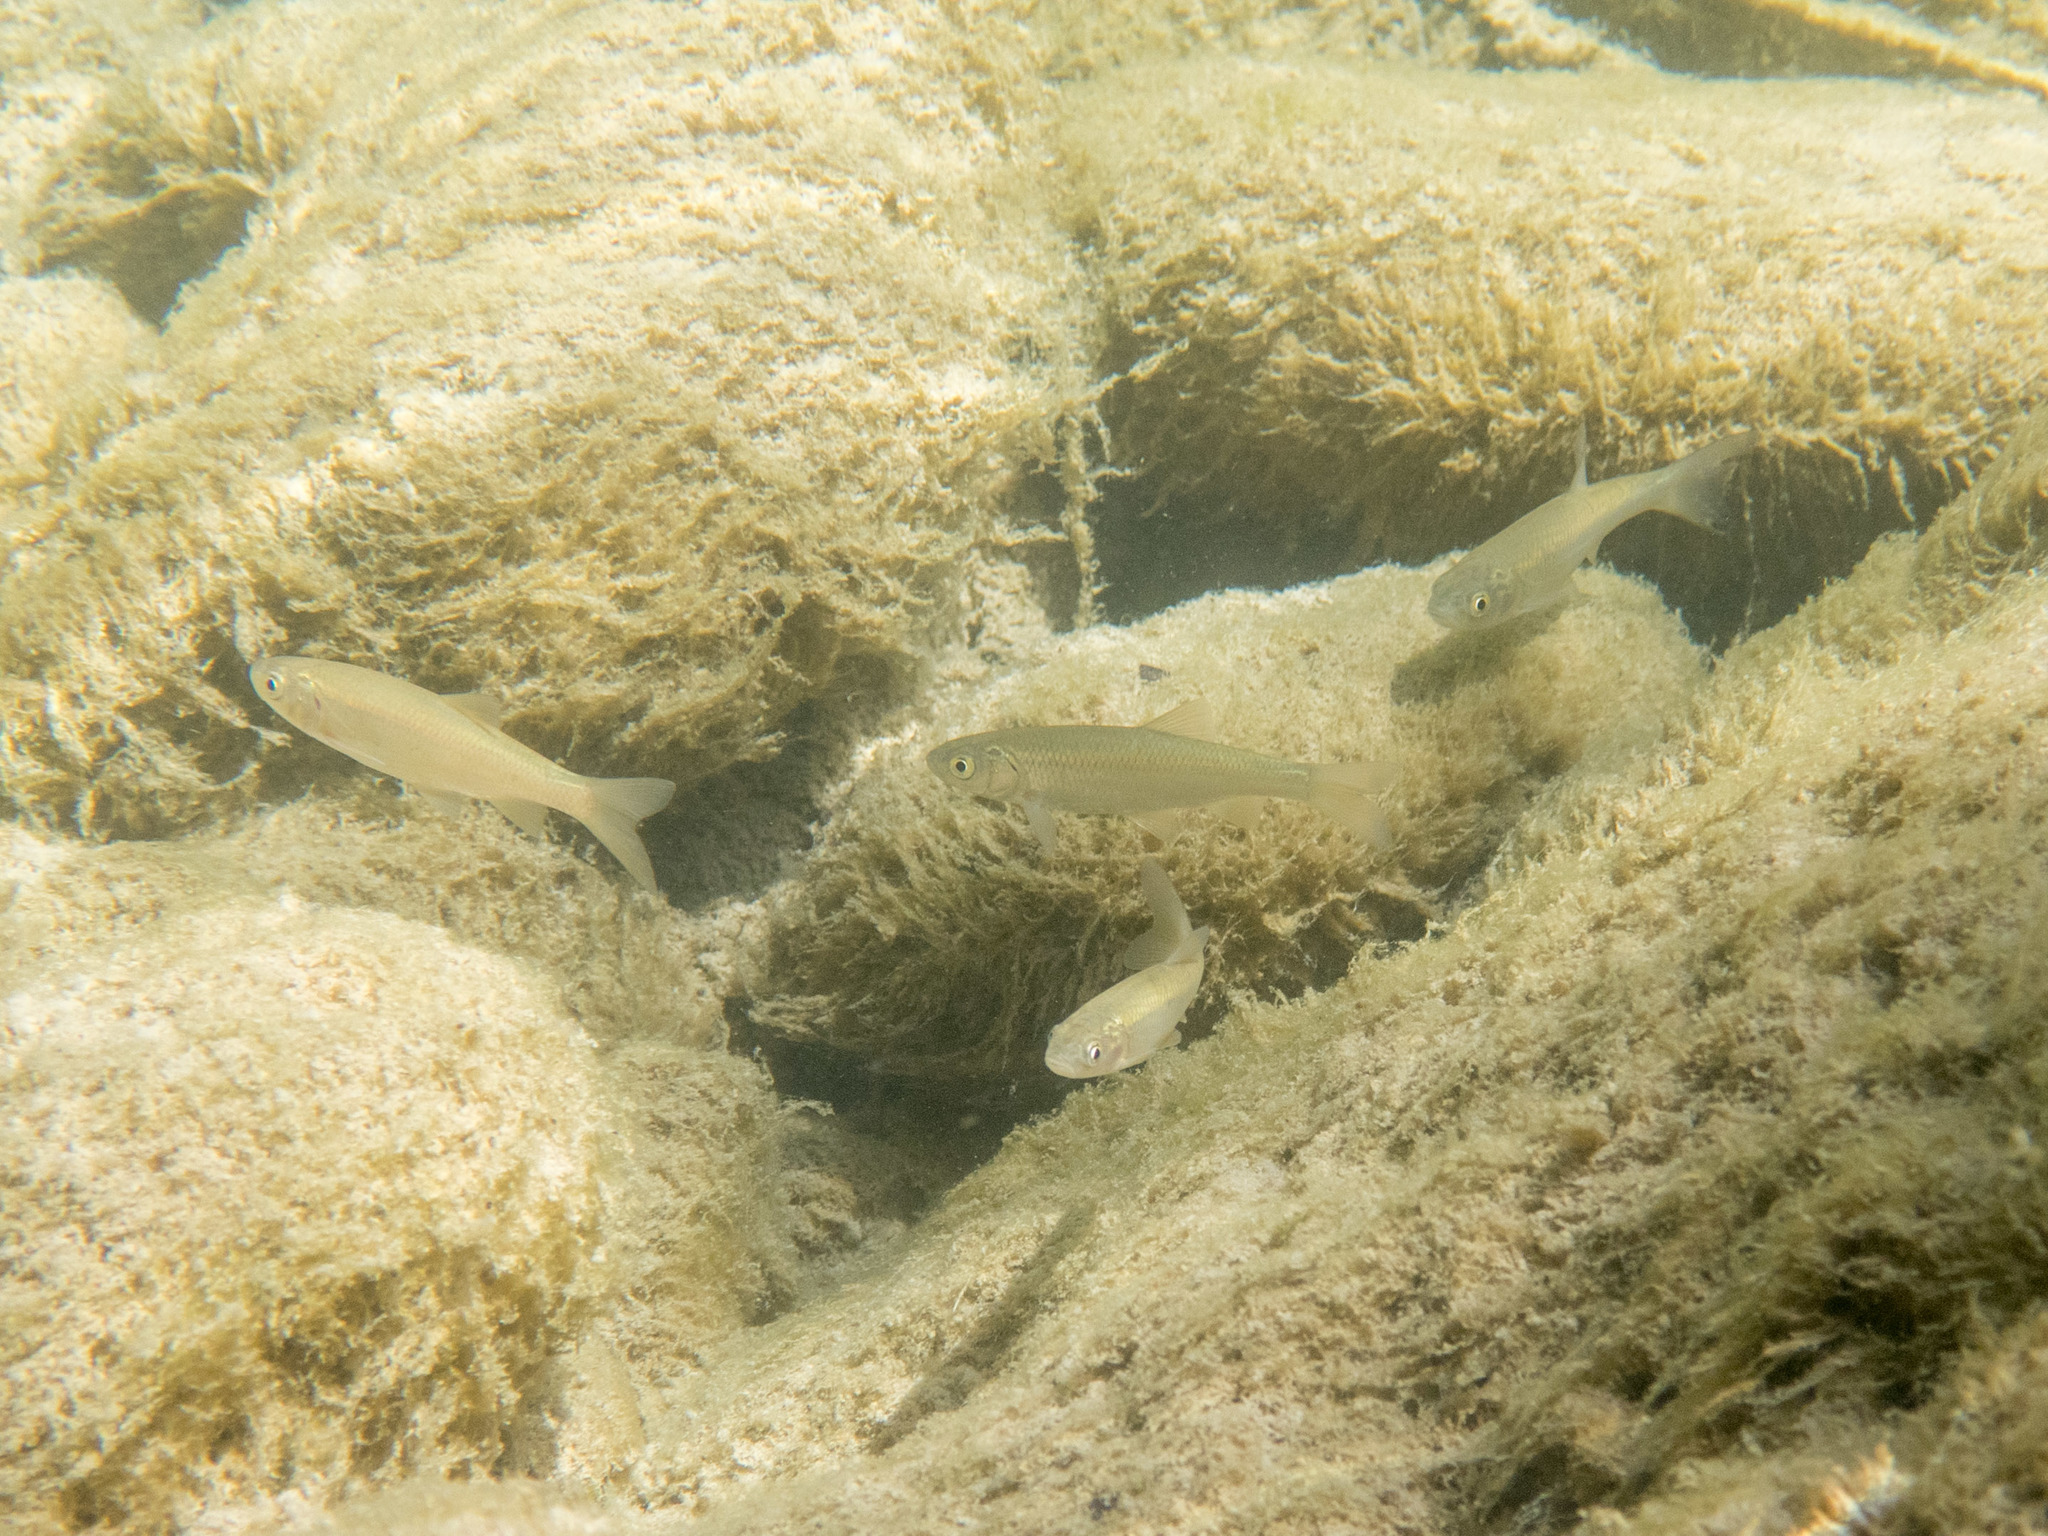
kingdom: Animalia
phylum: Chordata
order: Cypriniformes
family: Cyprinidae
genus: Squalius
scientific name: Squalius squalus
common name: Italian chub
